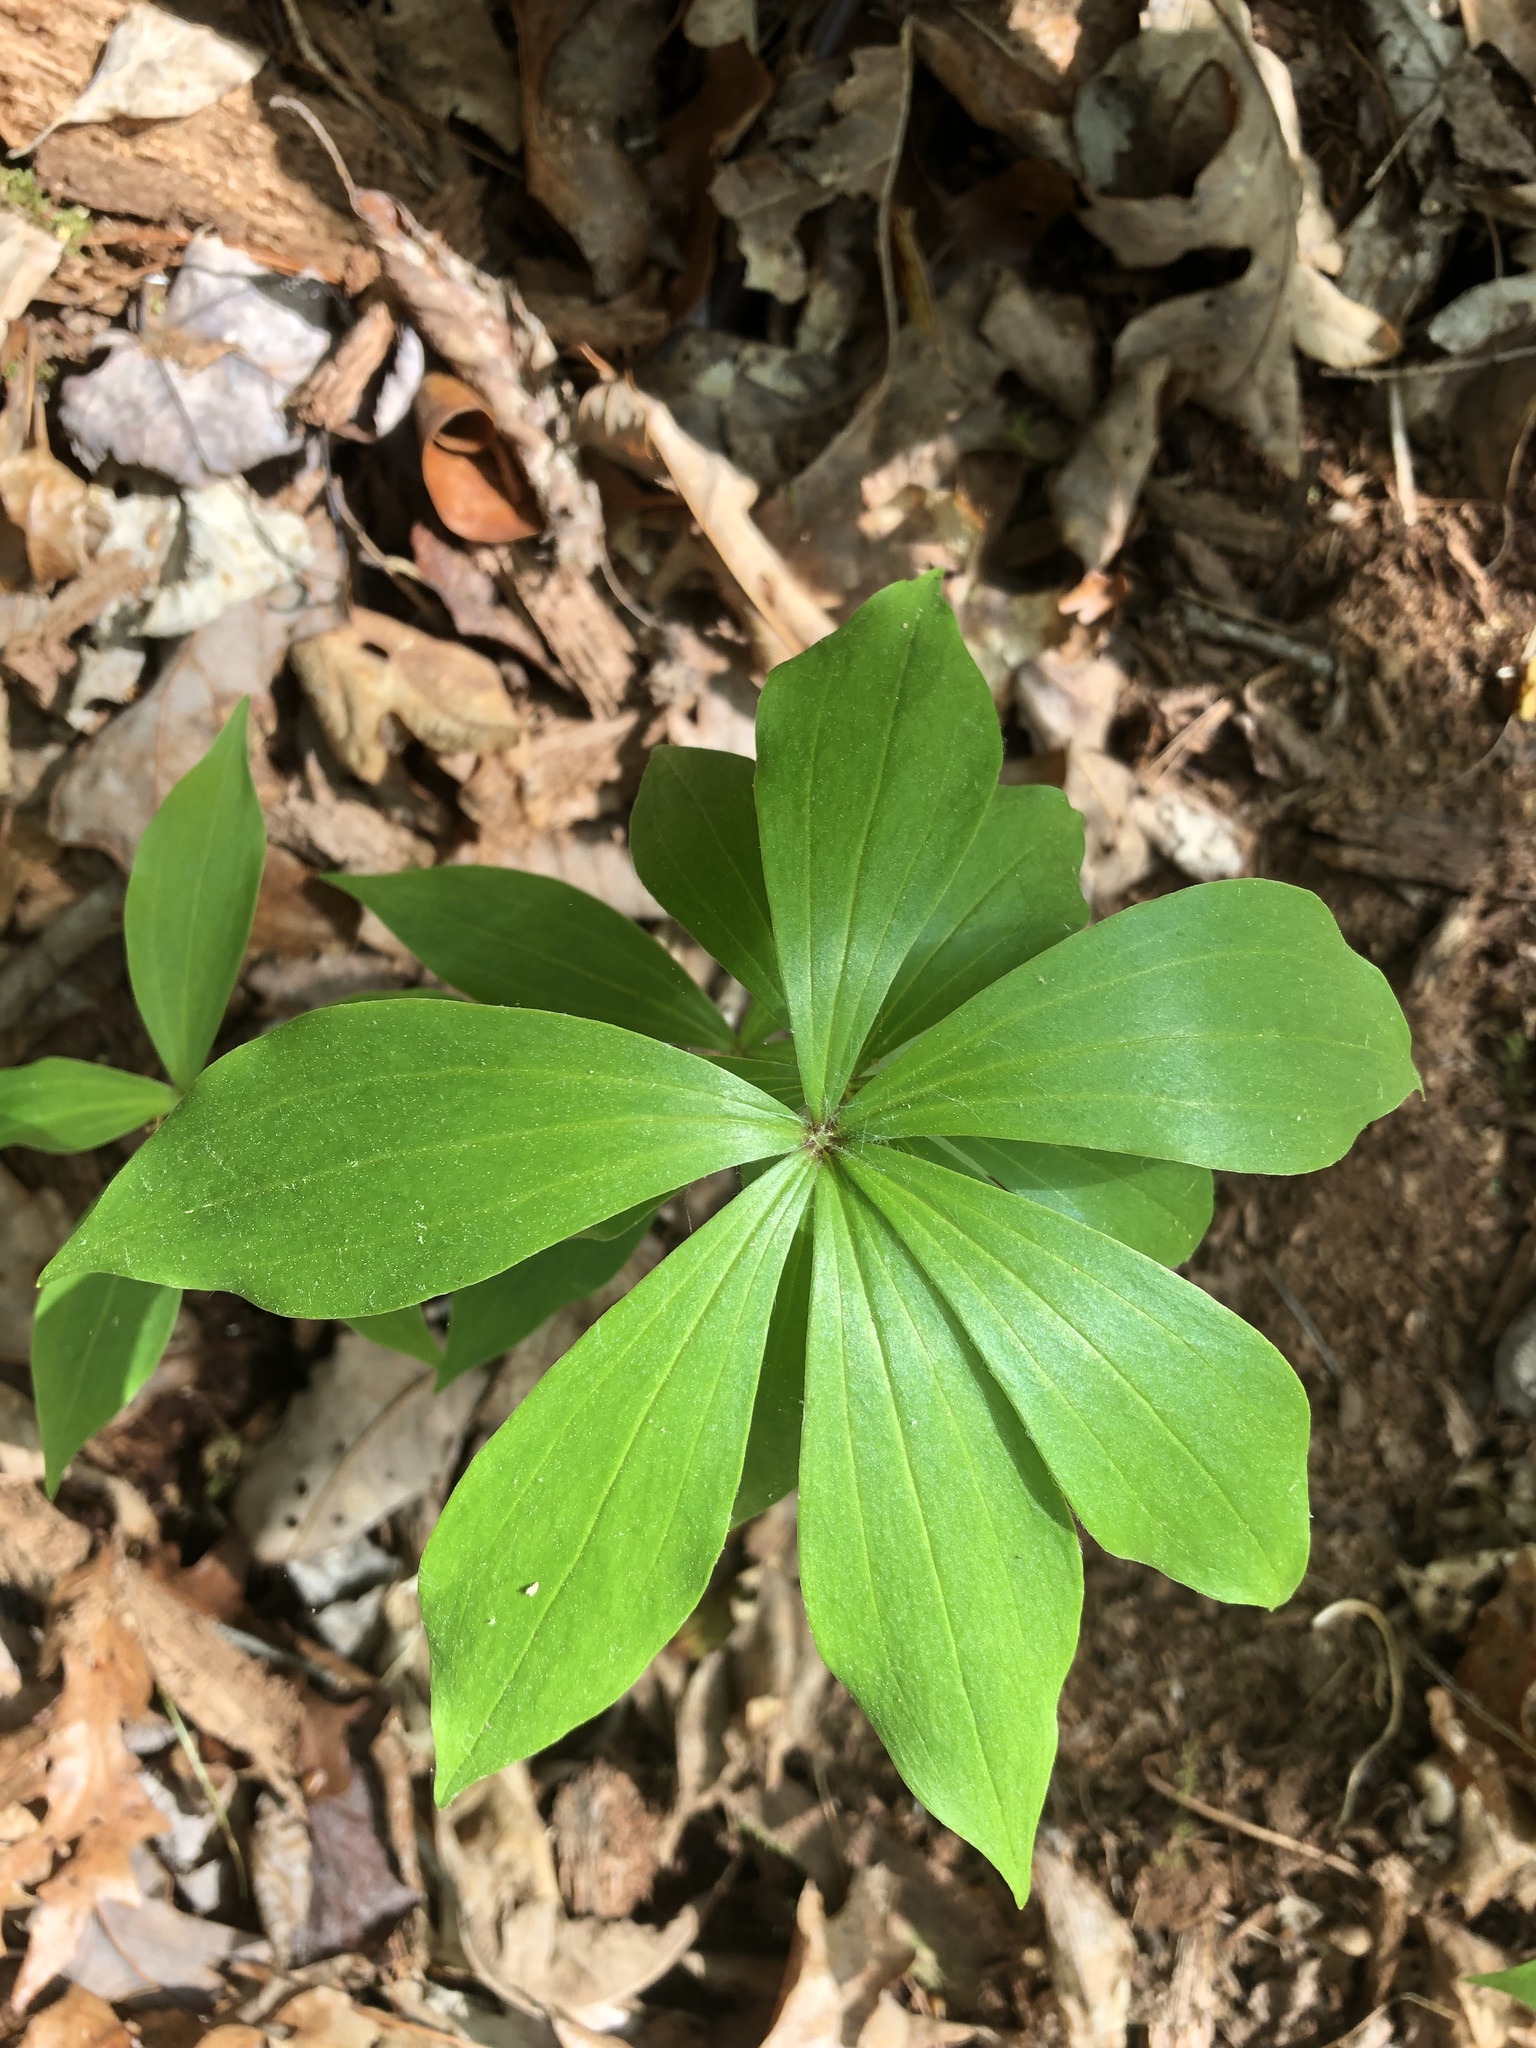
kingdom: Plantae
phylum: Tracheophyta
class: Liliopsida
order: Liliales
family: Liliaceae
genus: Medeola
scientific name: Medeola virginiana
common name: Indian cucumber-root
